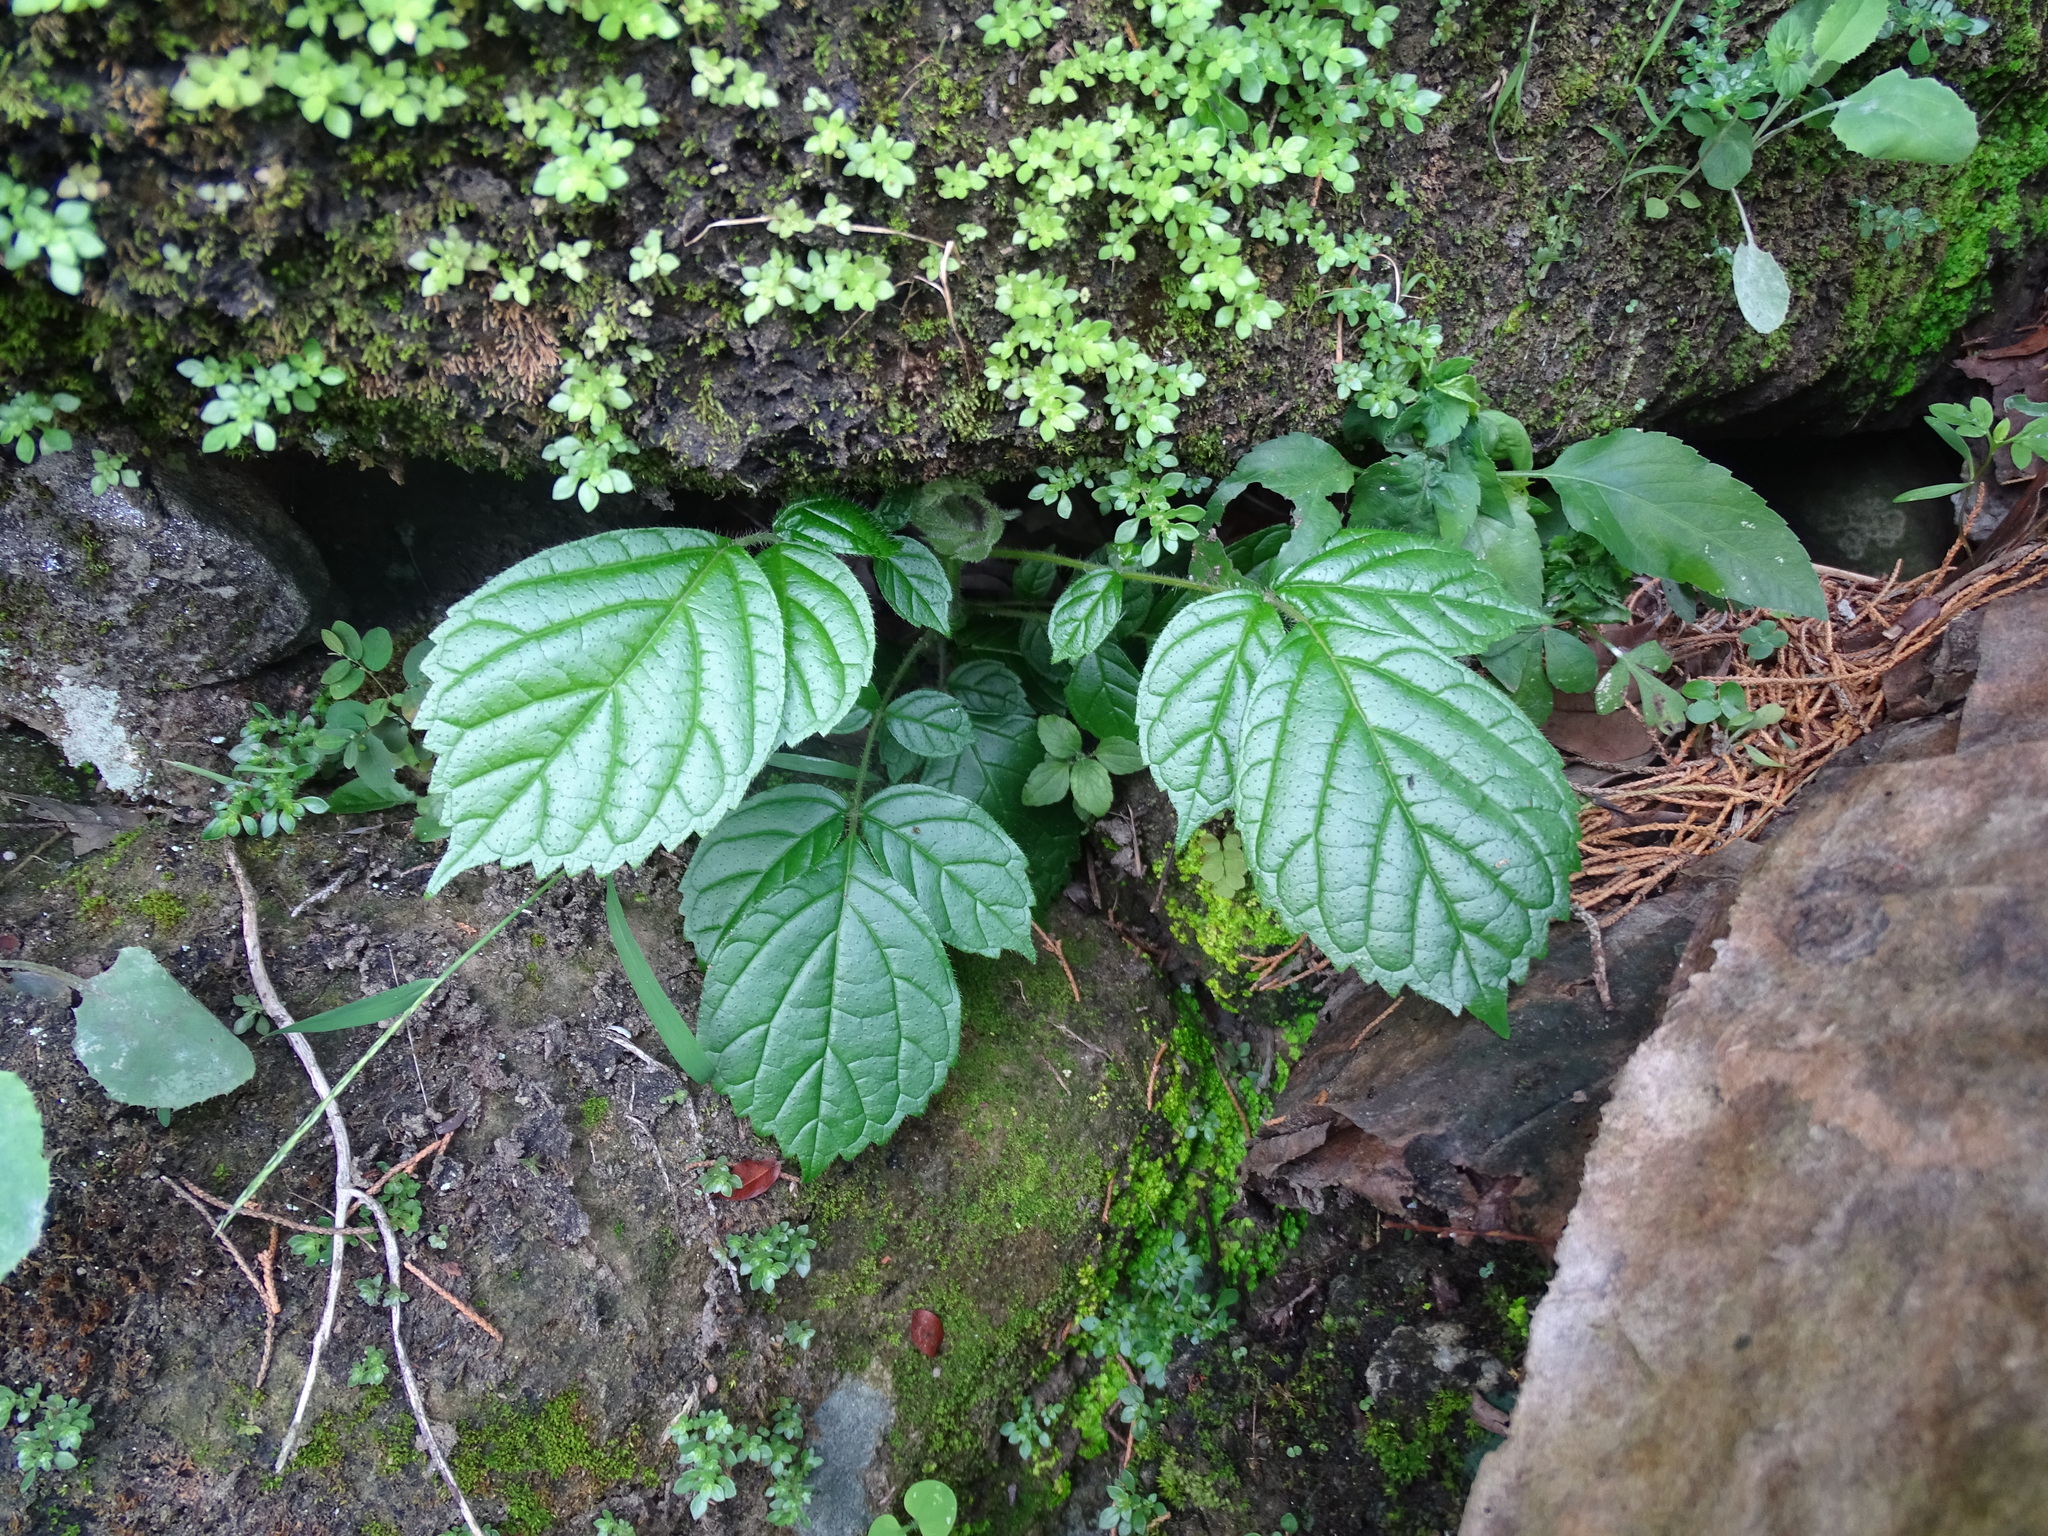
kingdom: Plantae
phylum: Tracheophyta
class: Magnoliopsida
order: Lamiales
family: Bignoniaceae
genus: Spathodea
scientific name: Spathodea campanulata
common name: African tuliptree
